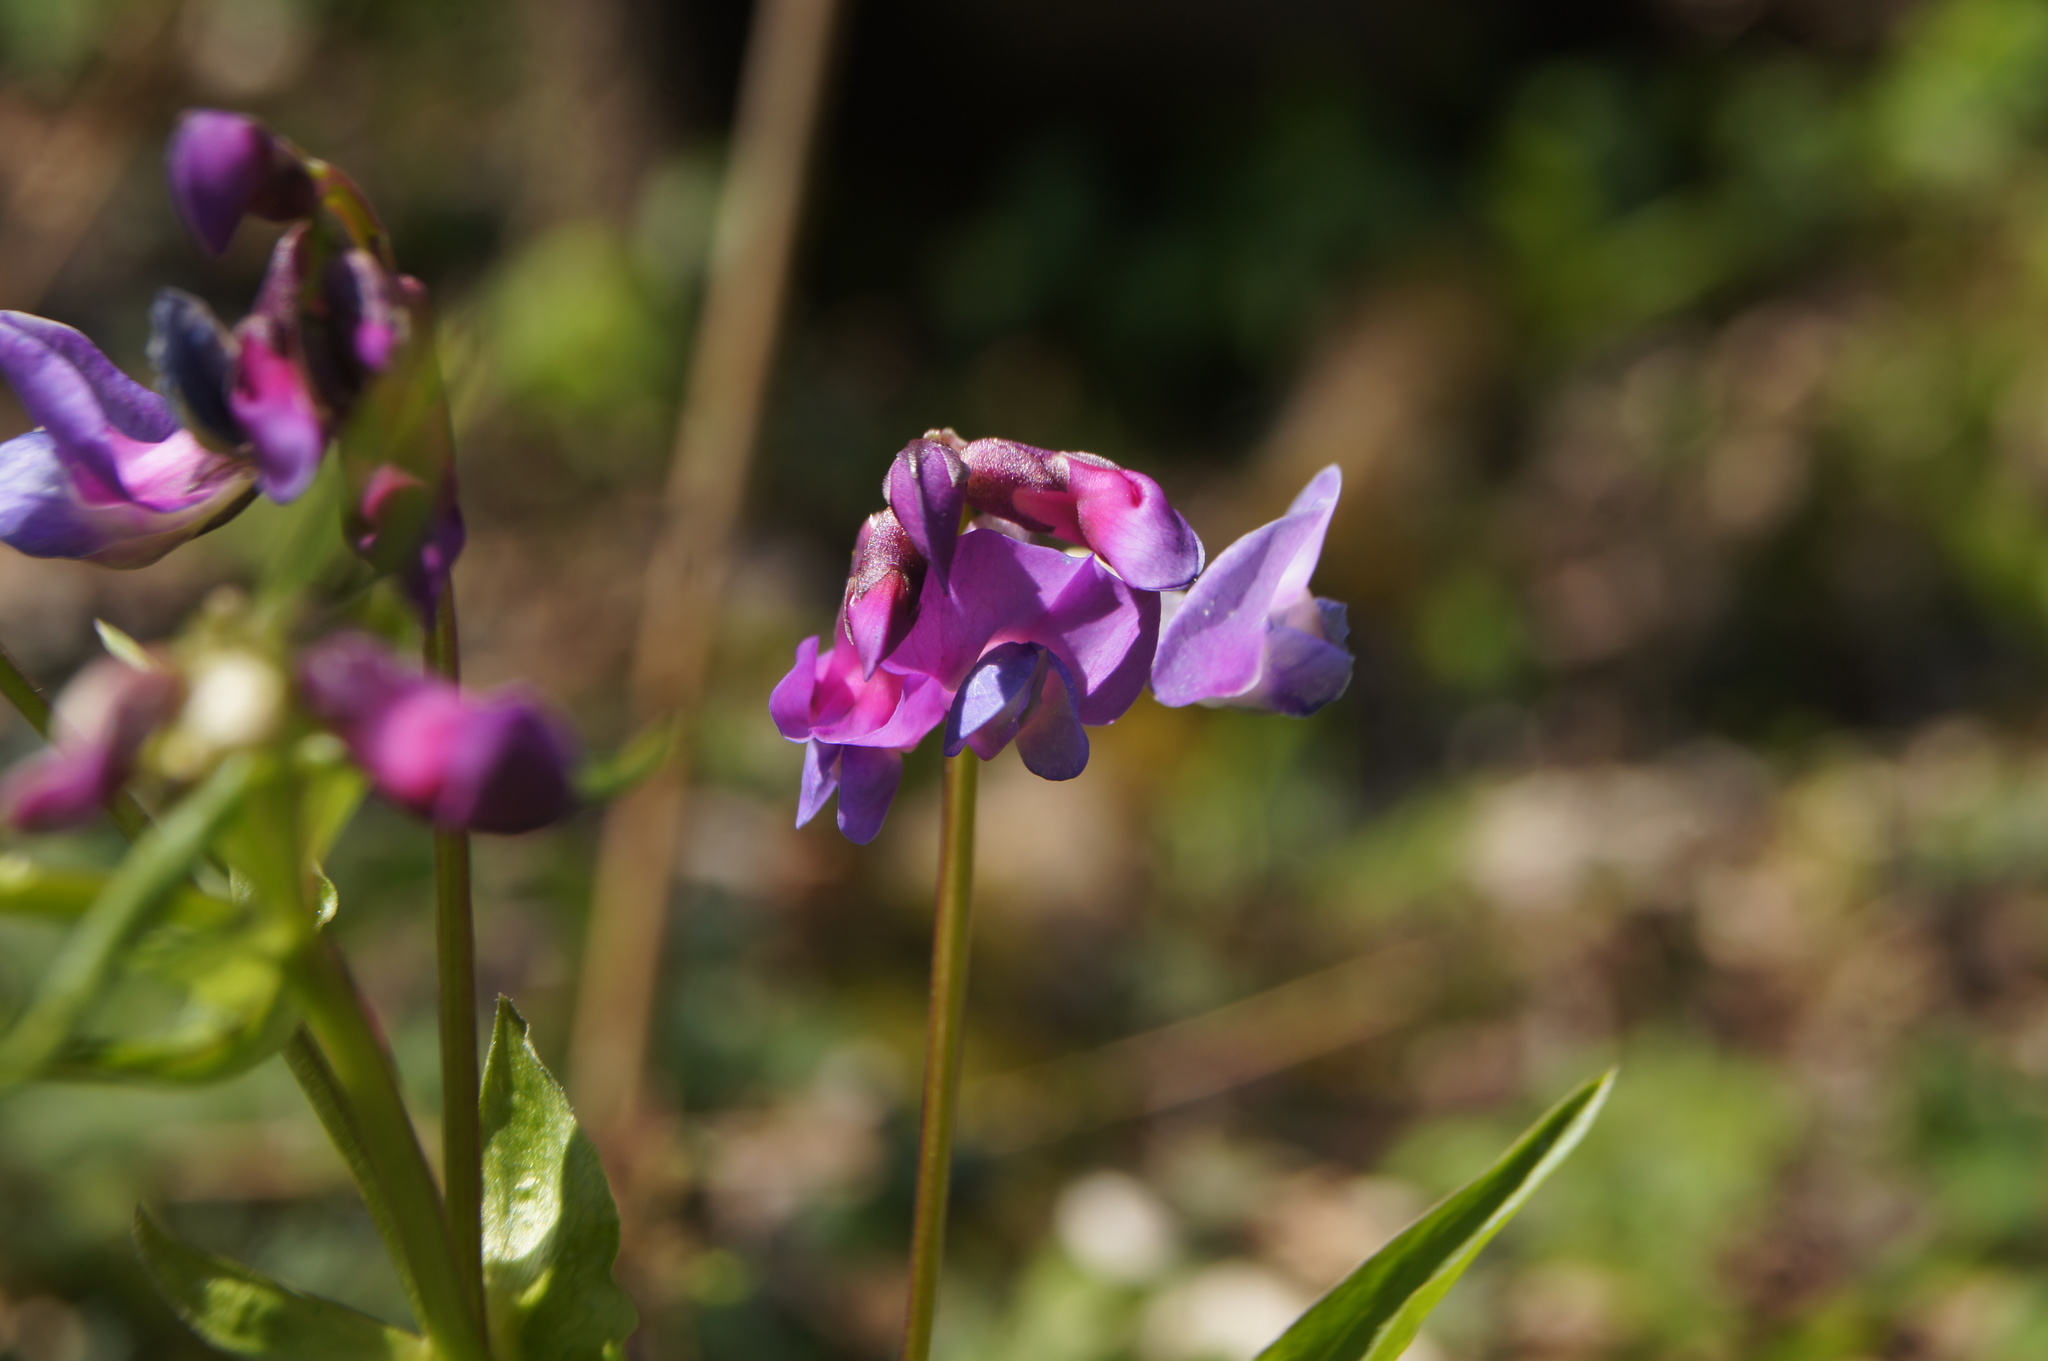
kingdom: Plantae
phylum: Tracheophyta
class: Magnoliopsida
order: Fabales
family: Fabaceae
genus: Lathyrus
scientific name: Lathyrus vernus
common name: Spring pea
